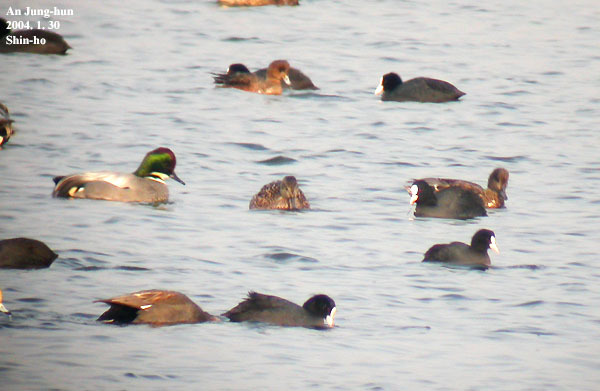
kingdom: Animalia
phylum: Chordata
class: Aves
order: Anseriformes
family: Anatidae
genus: Mareca
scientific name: Mareca falcata
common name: Falcated duck
